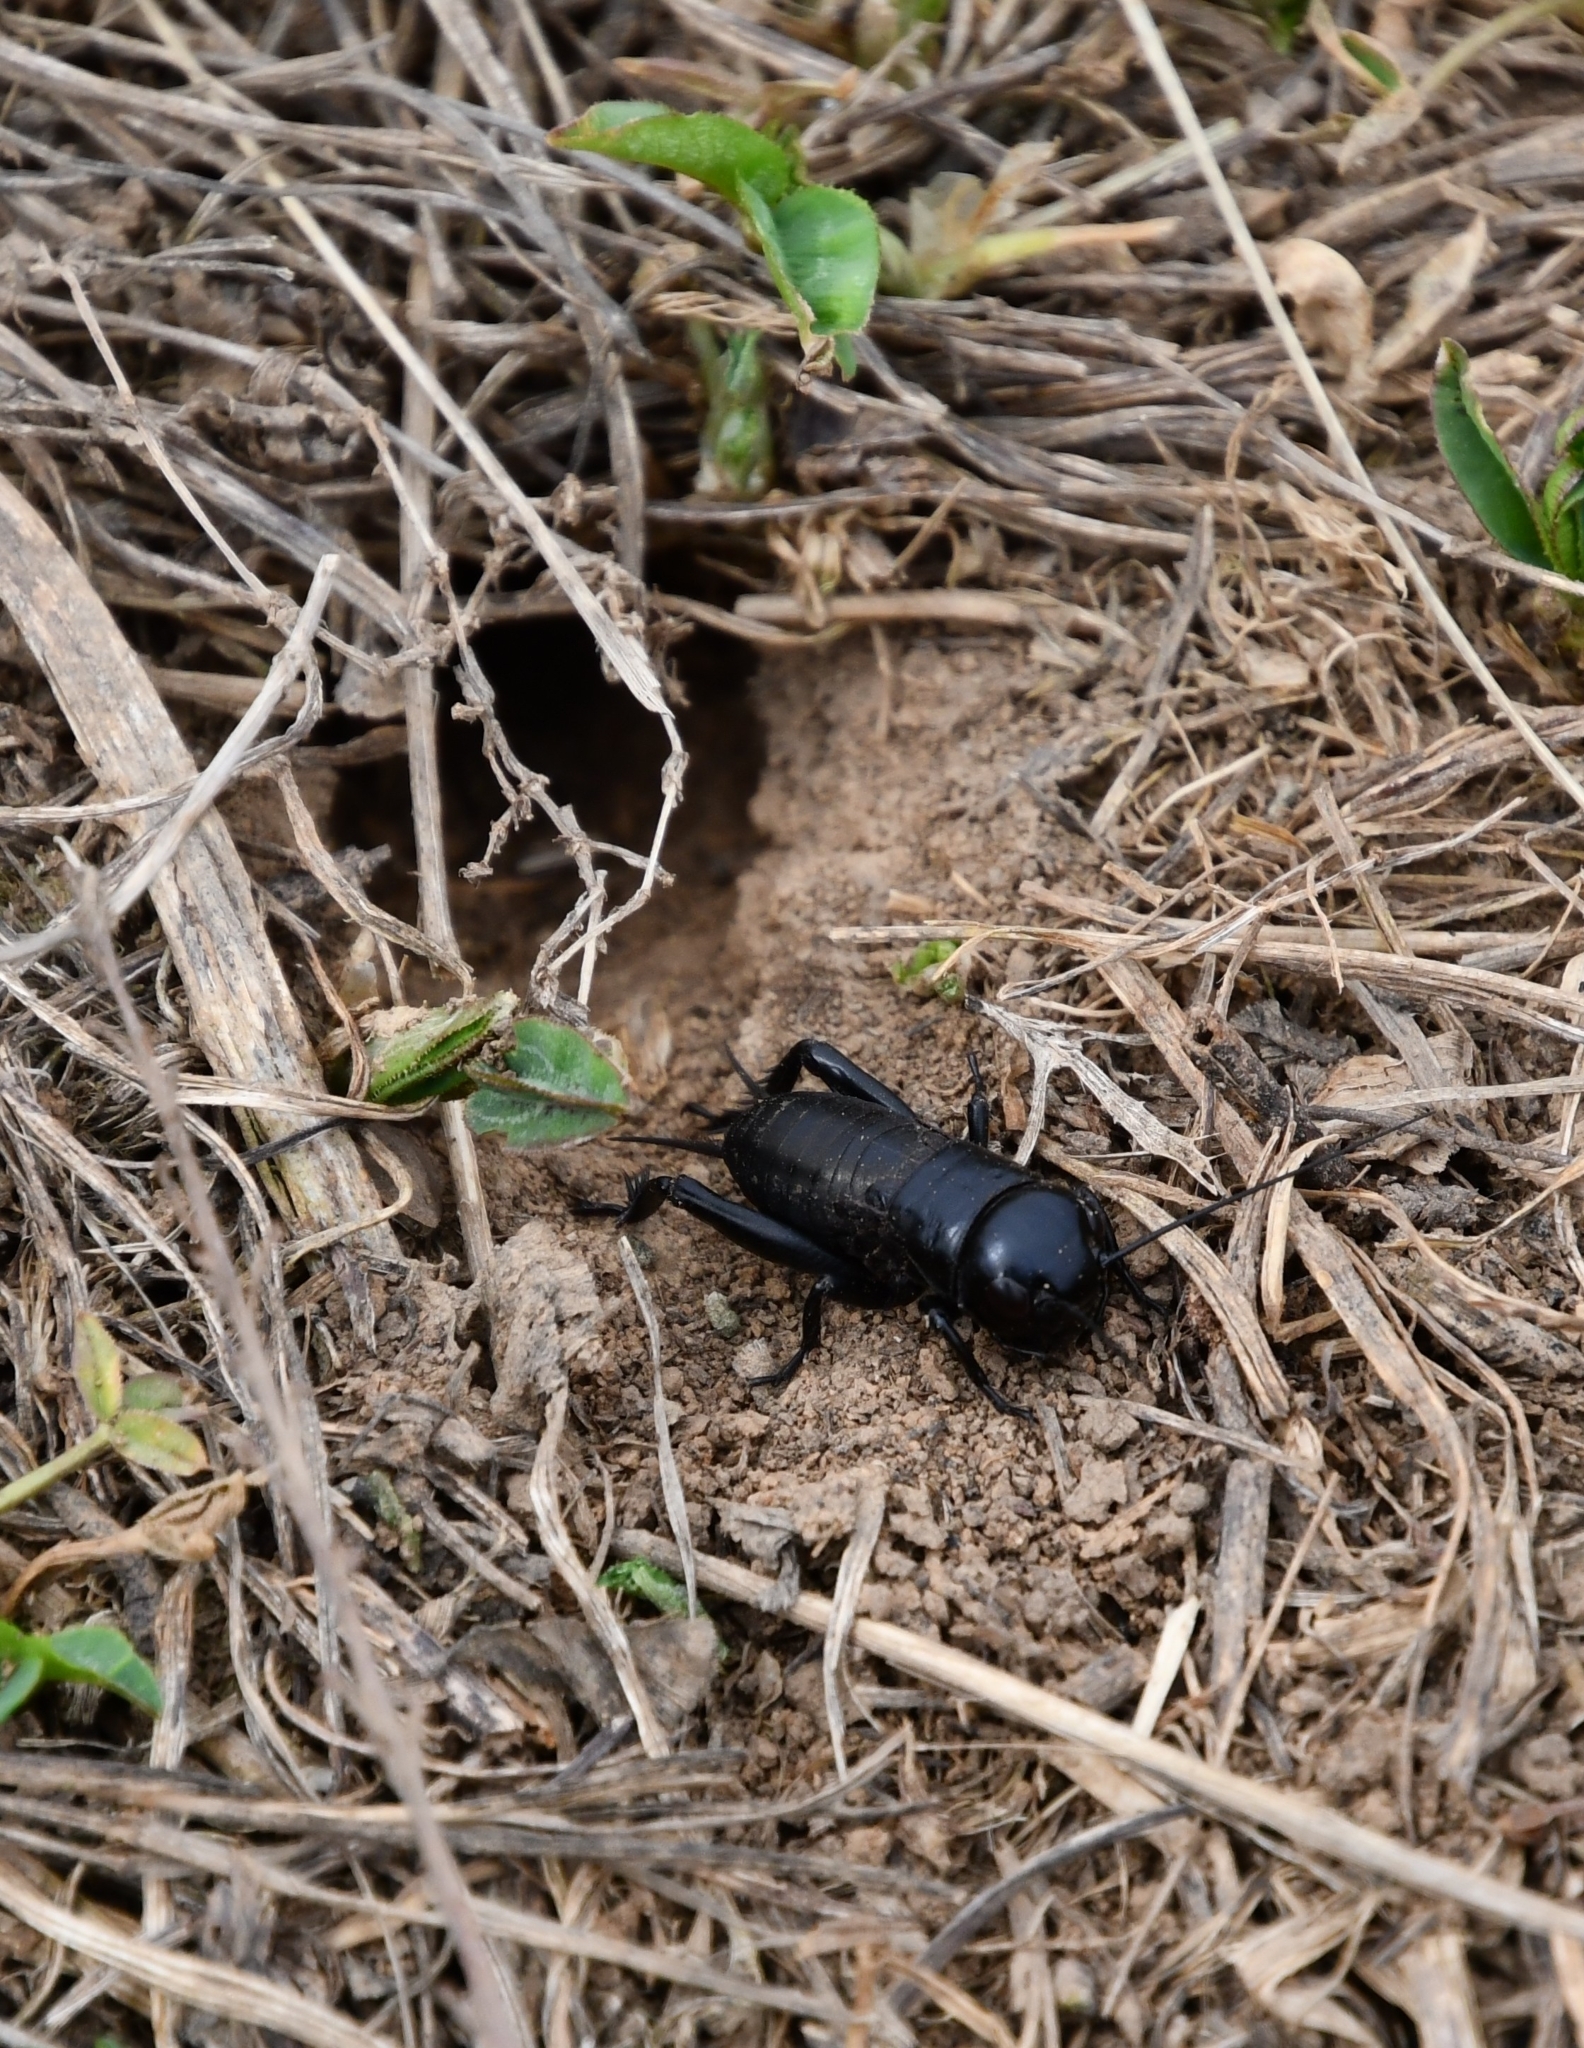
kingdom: Animalia
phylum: Arthropoda
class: Insecta
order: Orthoptera
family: Gryllidae
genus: Gryllus
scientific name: Gryllus campestris
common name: Field cricket
